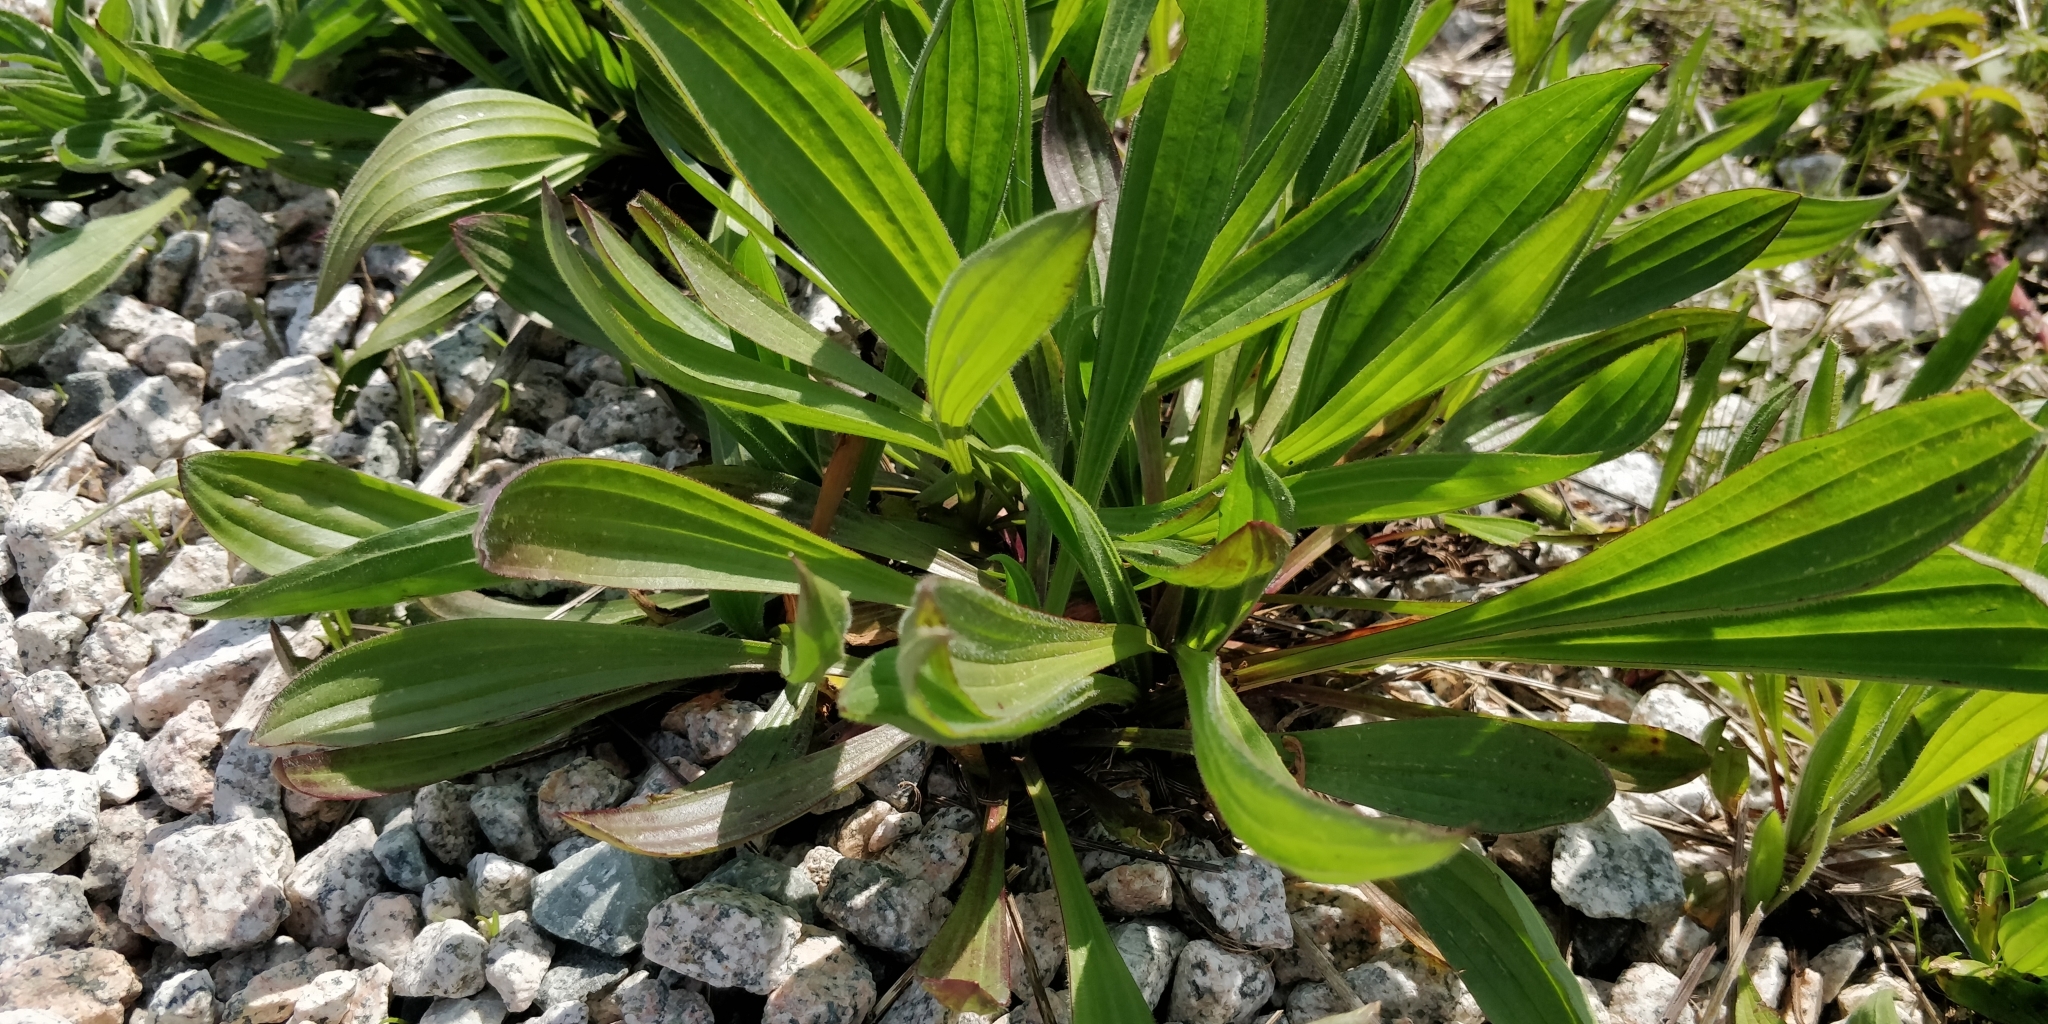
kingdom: Plantae
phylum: Tracheophyta
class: Magnoliopsida
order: Lamiales
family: Plantaginaceae
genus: Plantago
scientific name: Plantago lanceolata
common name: Ribwort plantain
